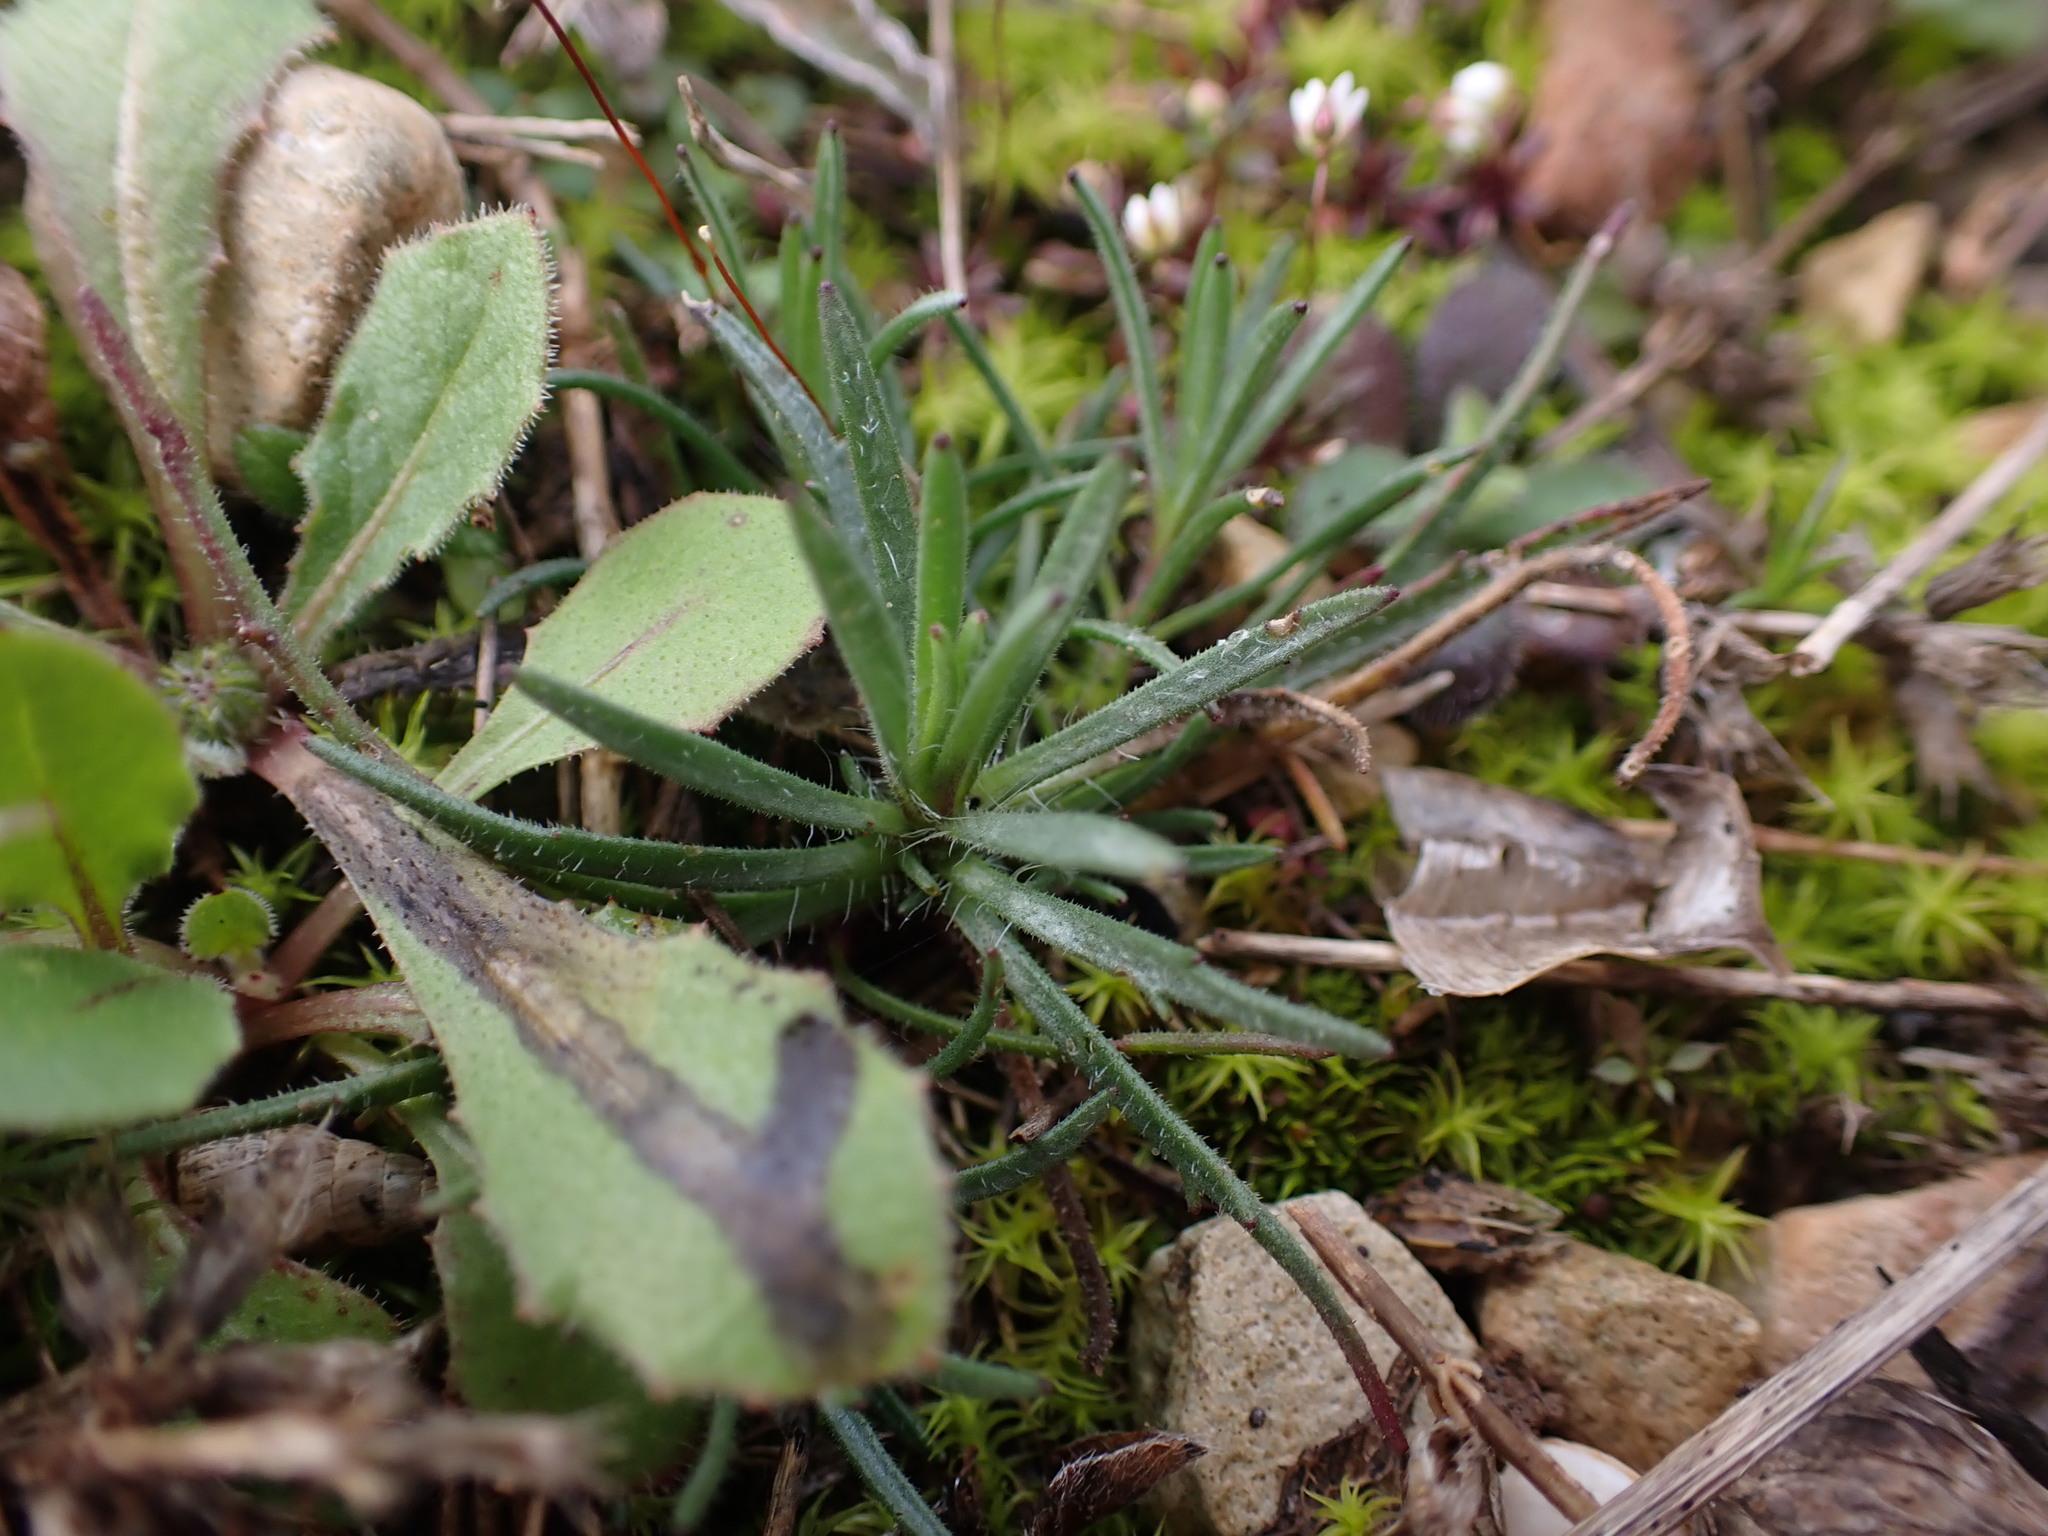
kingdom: Plantae
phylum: Tracheophyta
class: Magnoliopsida
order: Lamiales
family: Plantaginaceae
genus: Plantago
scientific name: Plantago sempervirens
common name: Shrubby plantain
